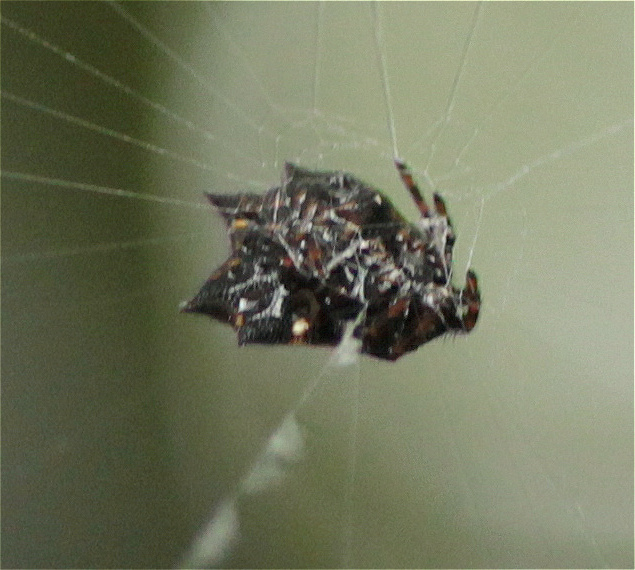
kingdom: Animalia
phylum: Arthropoda
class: Arachnida
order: Araneae
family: Araneidae
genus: Gasteracantha
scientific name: Gasteracantha cancriformis
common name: Orb weavers
